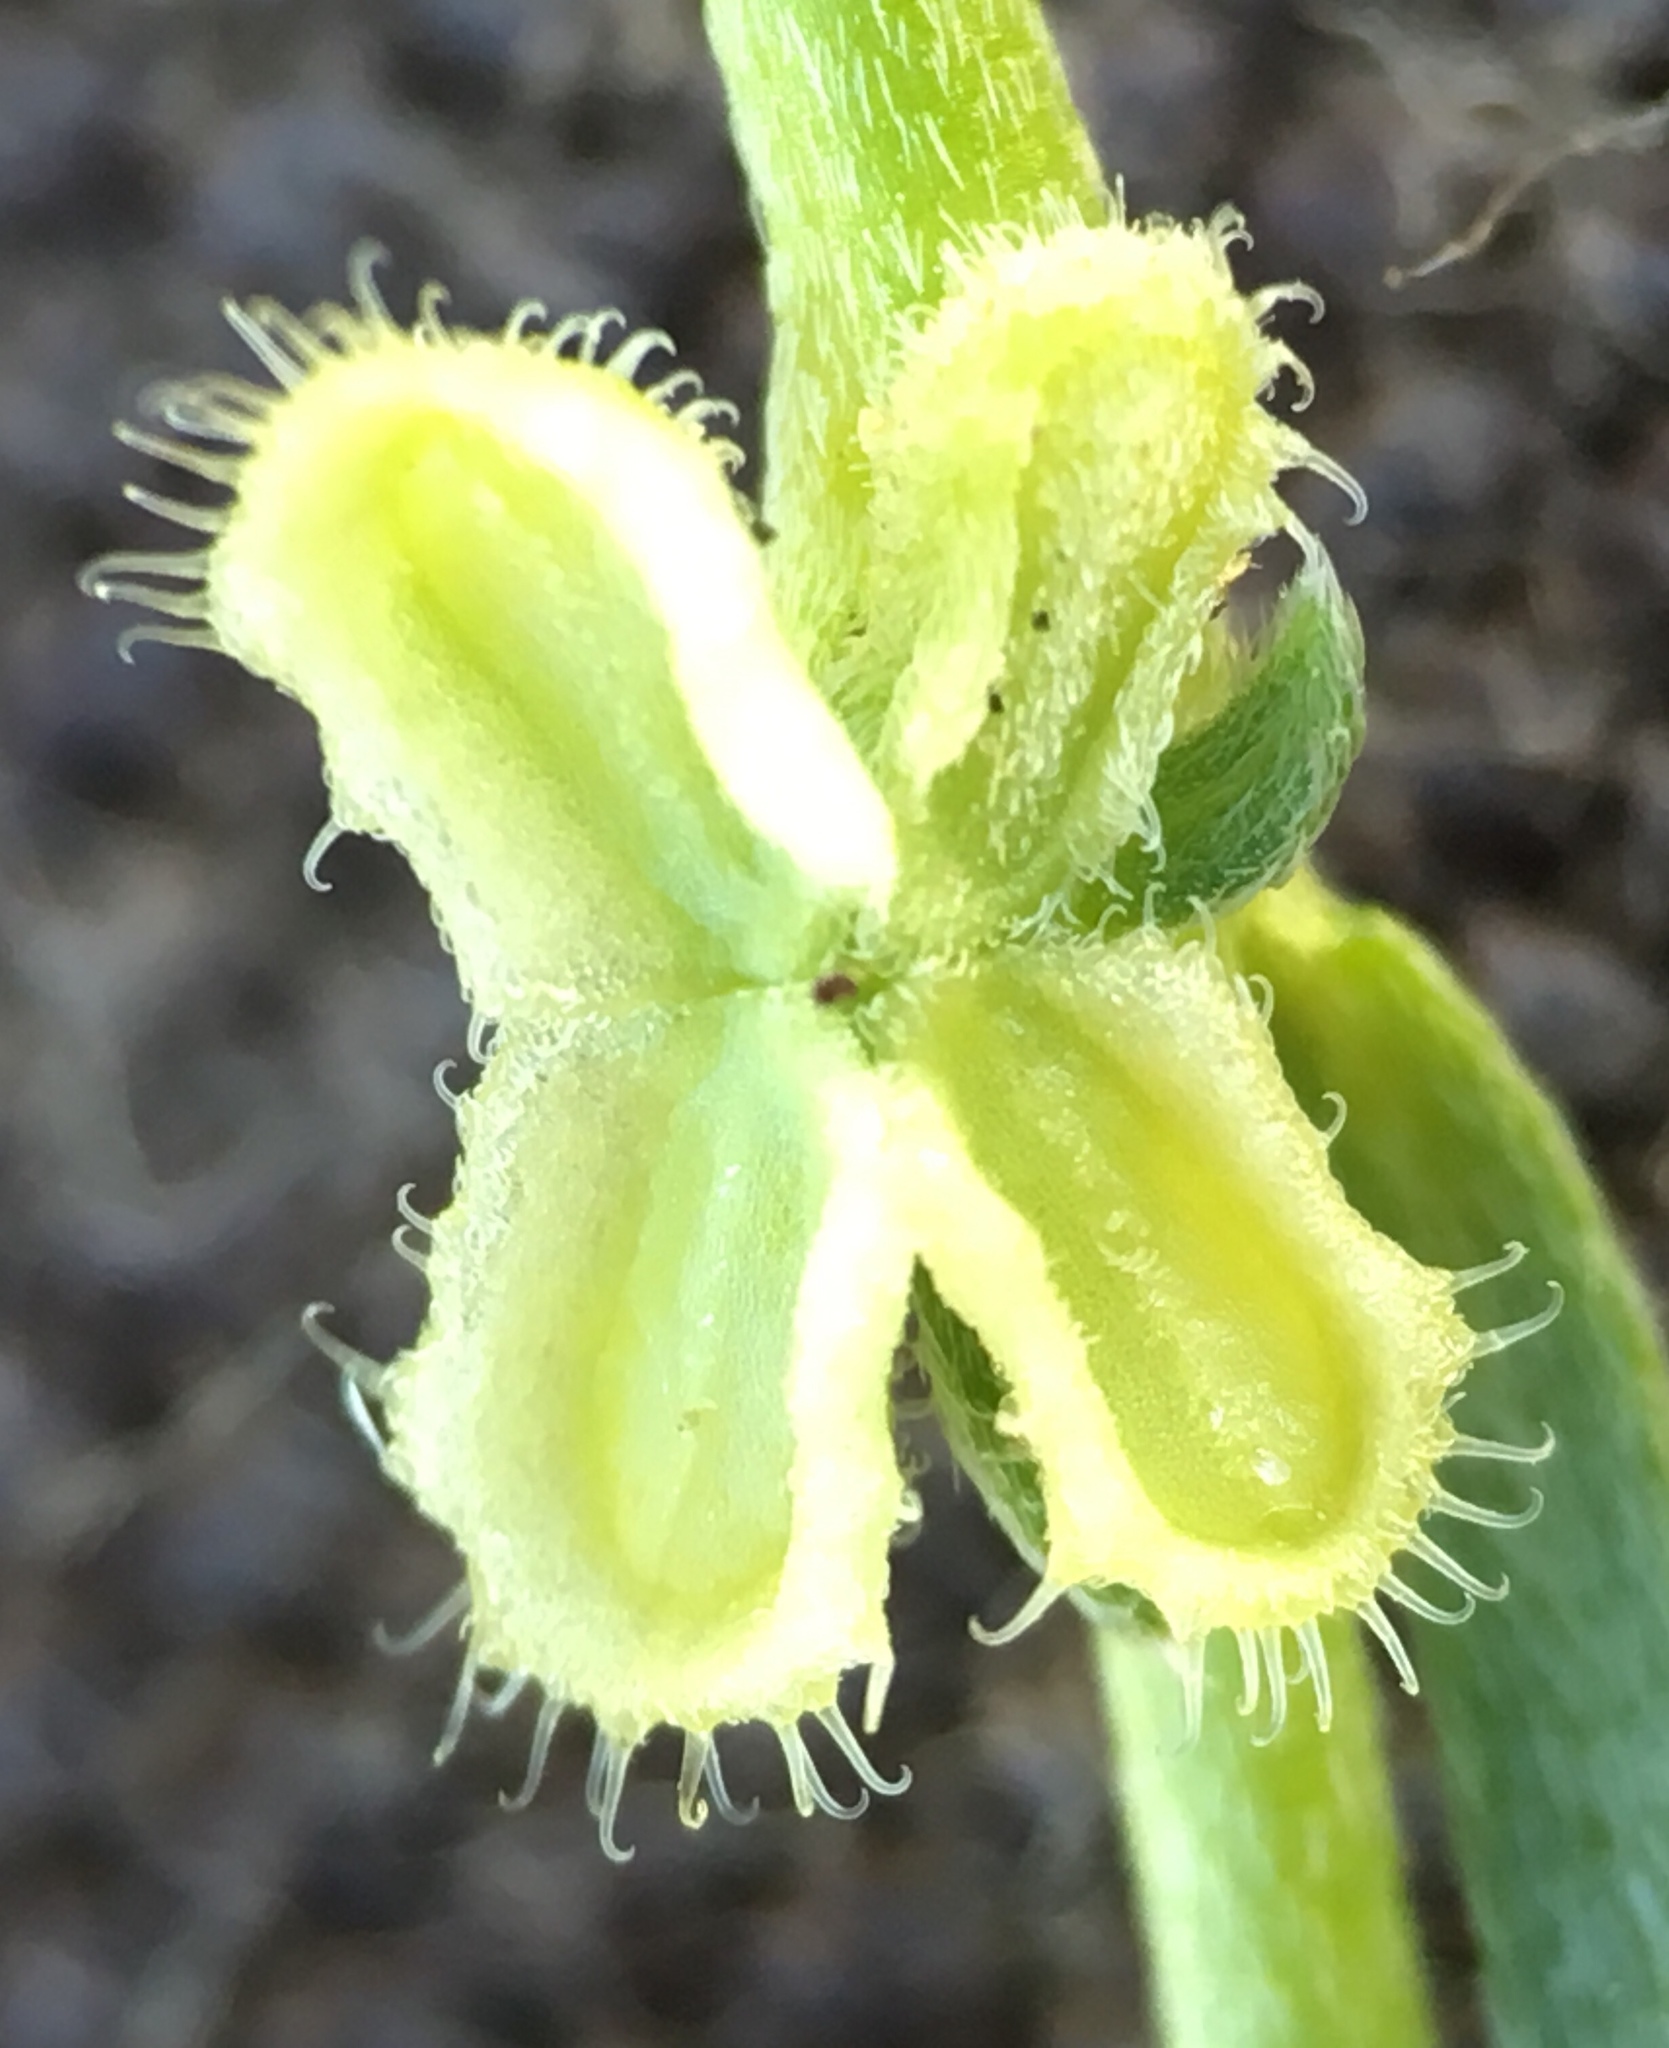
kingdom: Plantae
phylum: Tracheophyta
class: Magnoliopsida
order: Boraginales
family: Boraginaceae
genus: Pectocarya
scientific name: Pectocarya penicillata
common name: Short-leaved combseed
